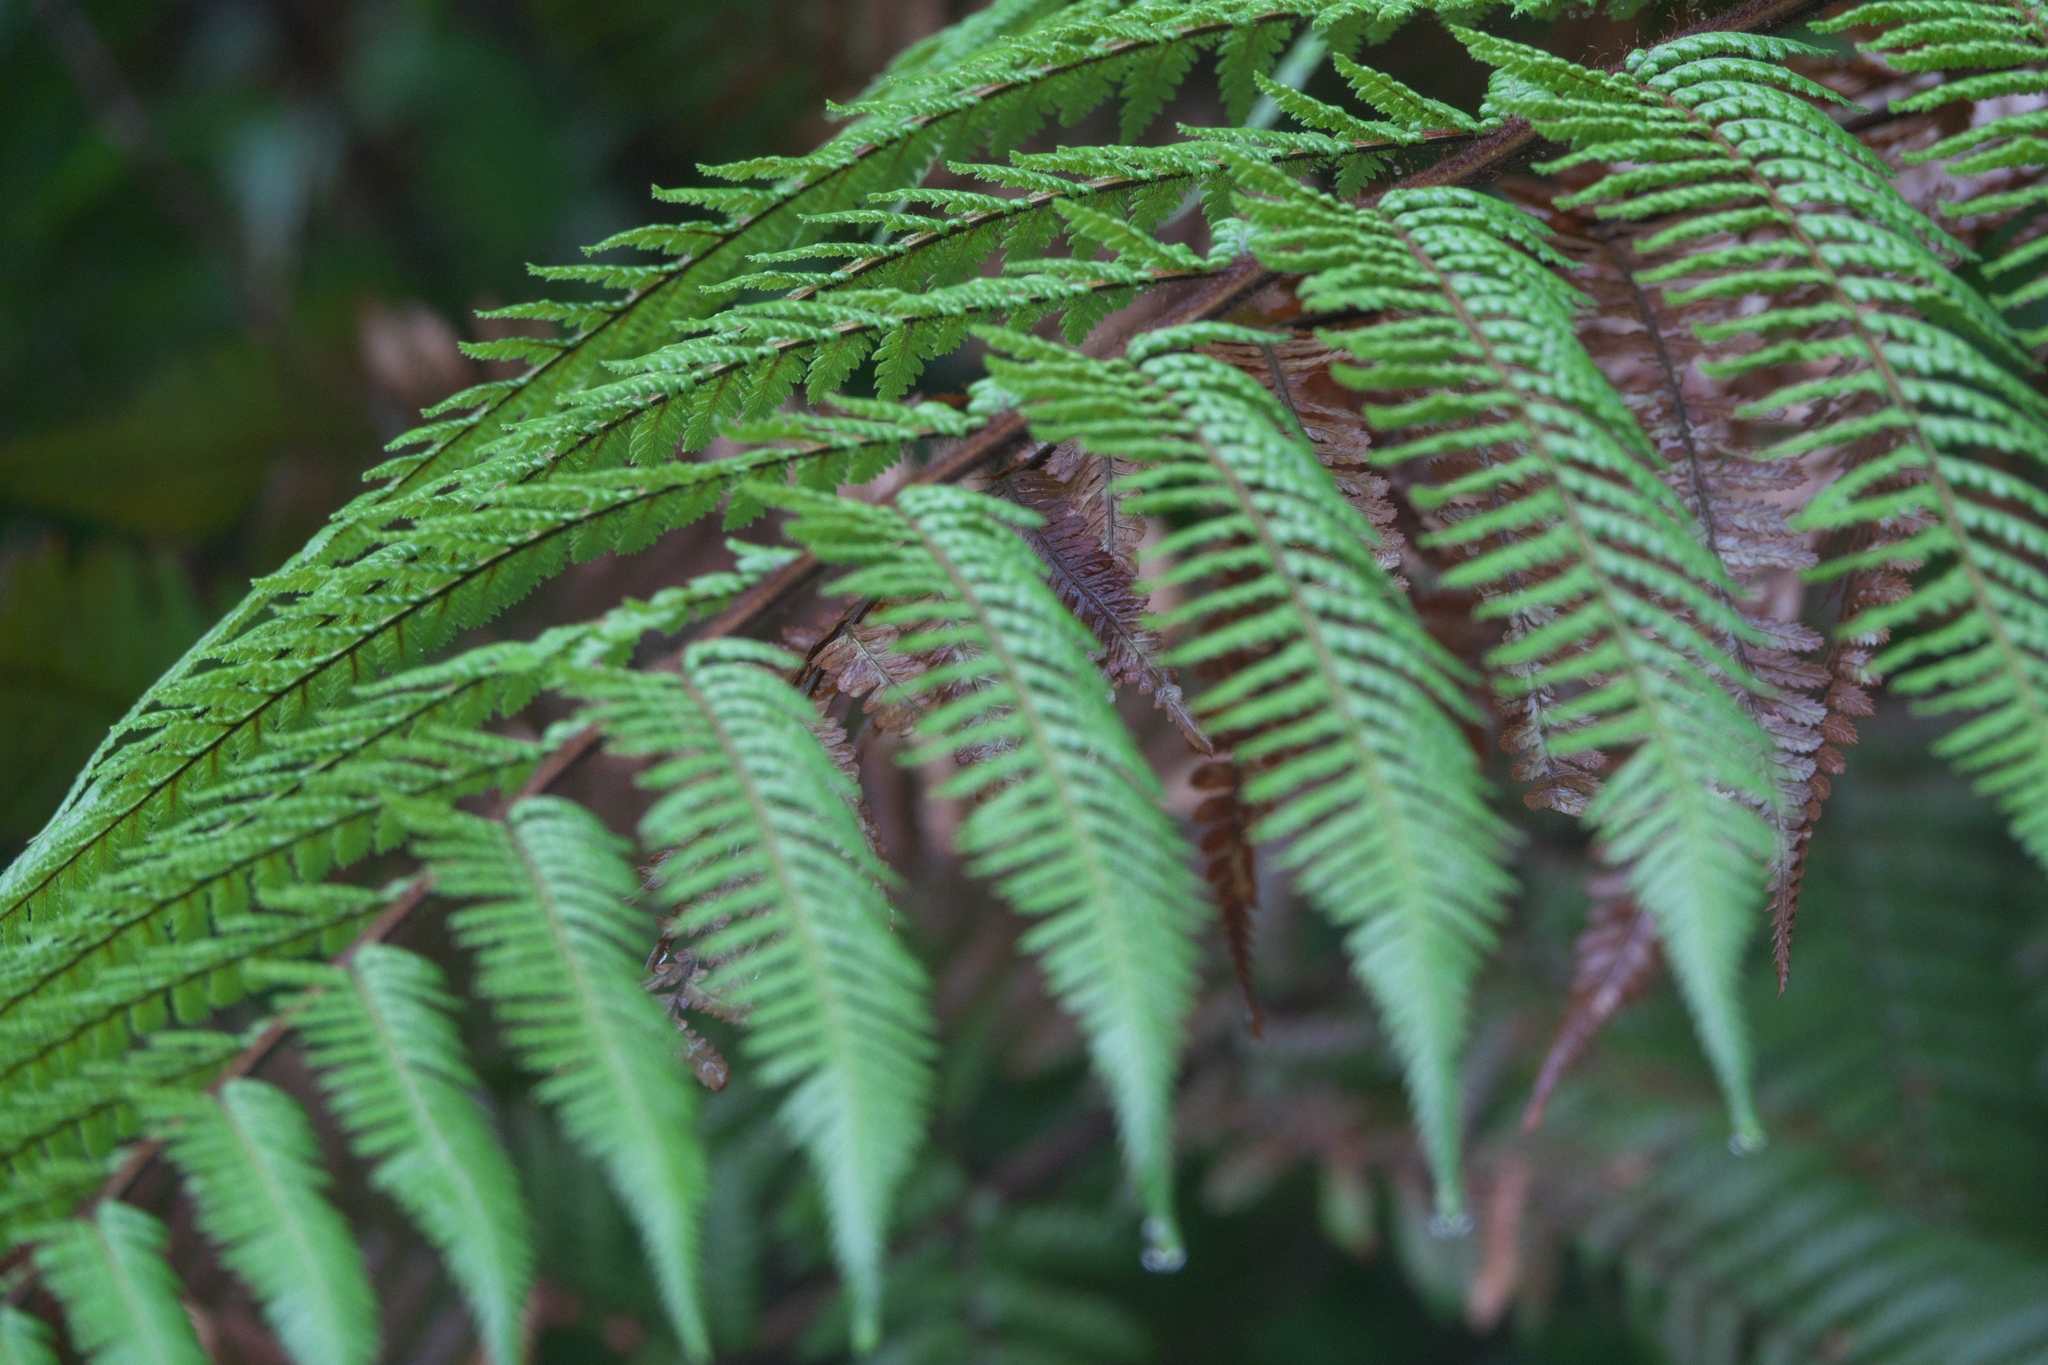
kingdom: Plantae
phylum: Tracheophyta
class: Polypodiopsida
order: Cyatheales
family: Dicksoniaceae
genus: Dicksonia
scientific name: Dicksonia squarrosa
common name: Hard treefern
